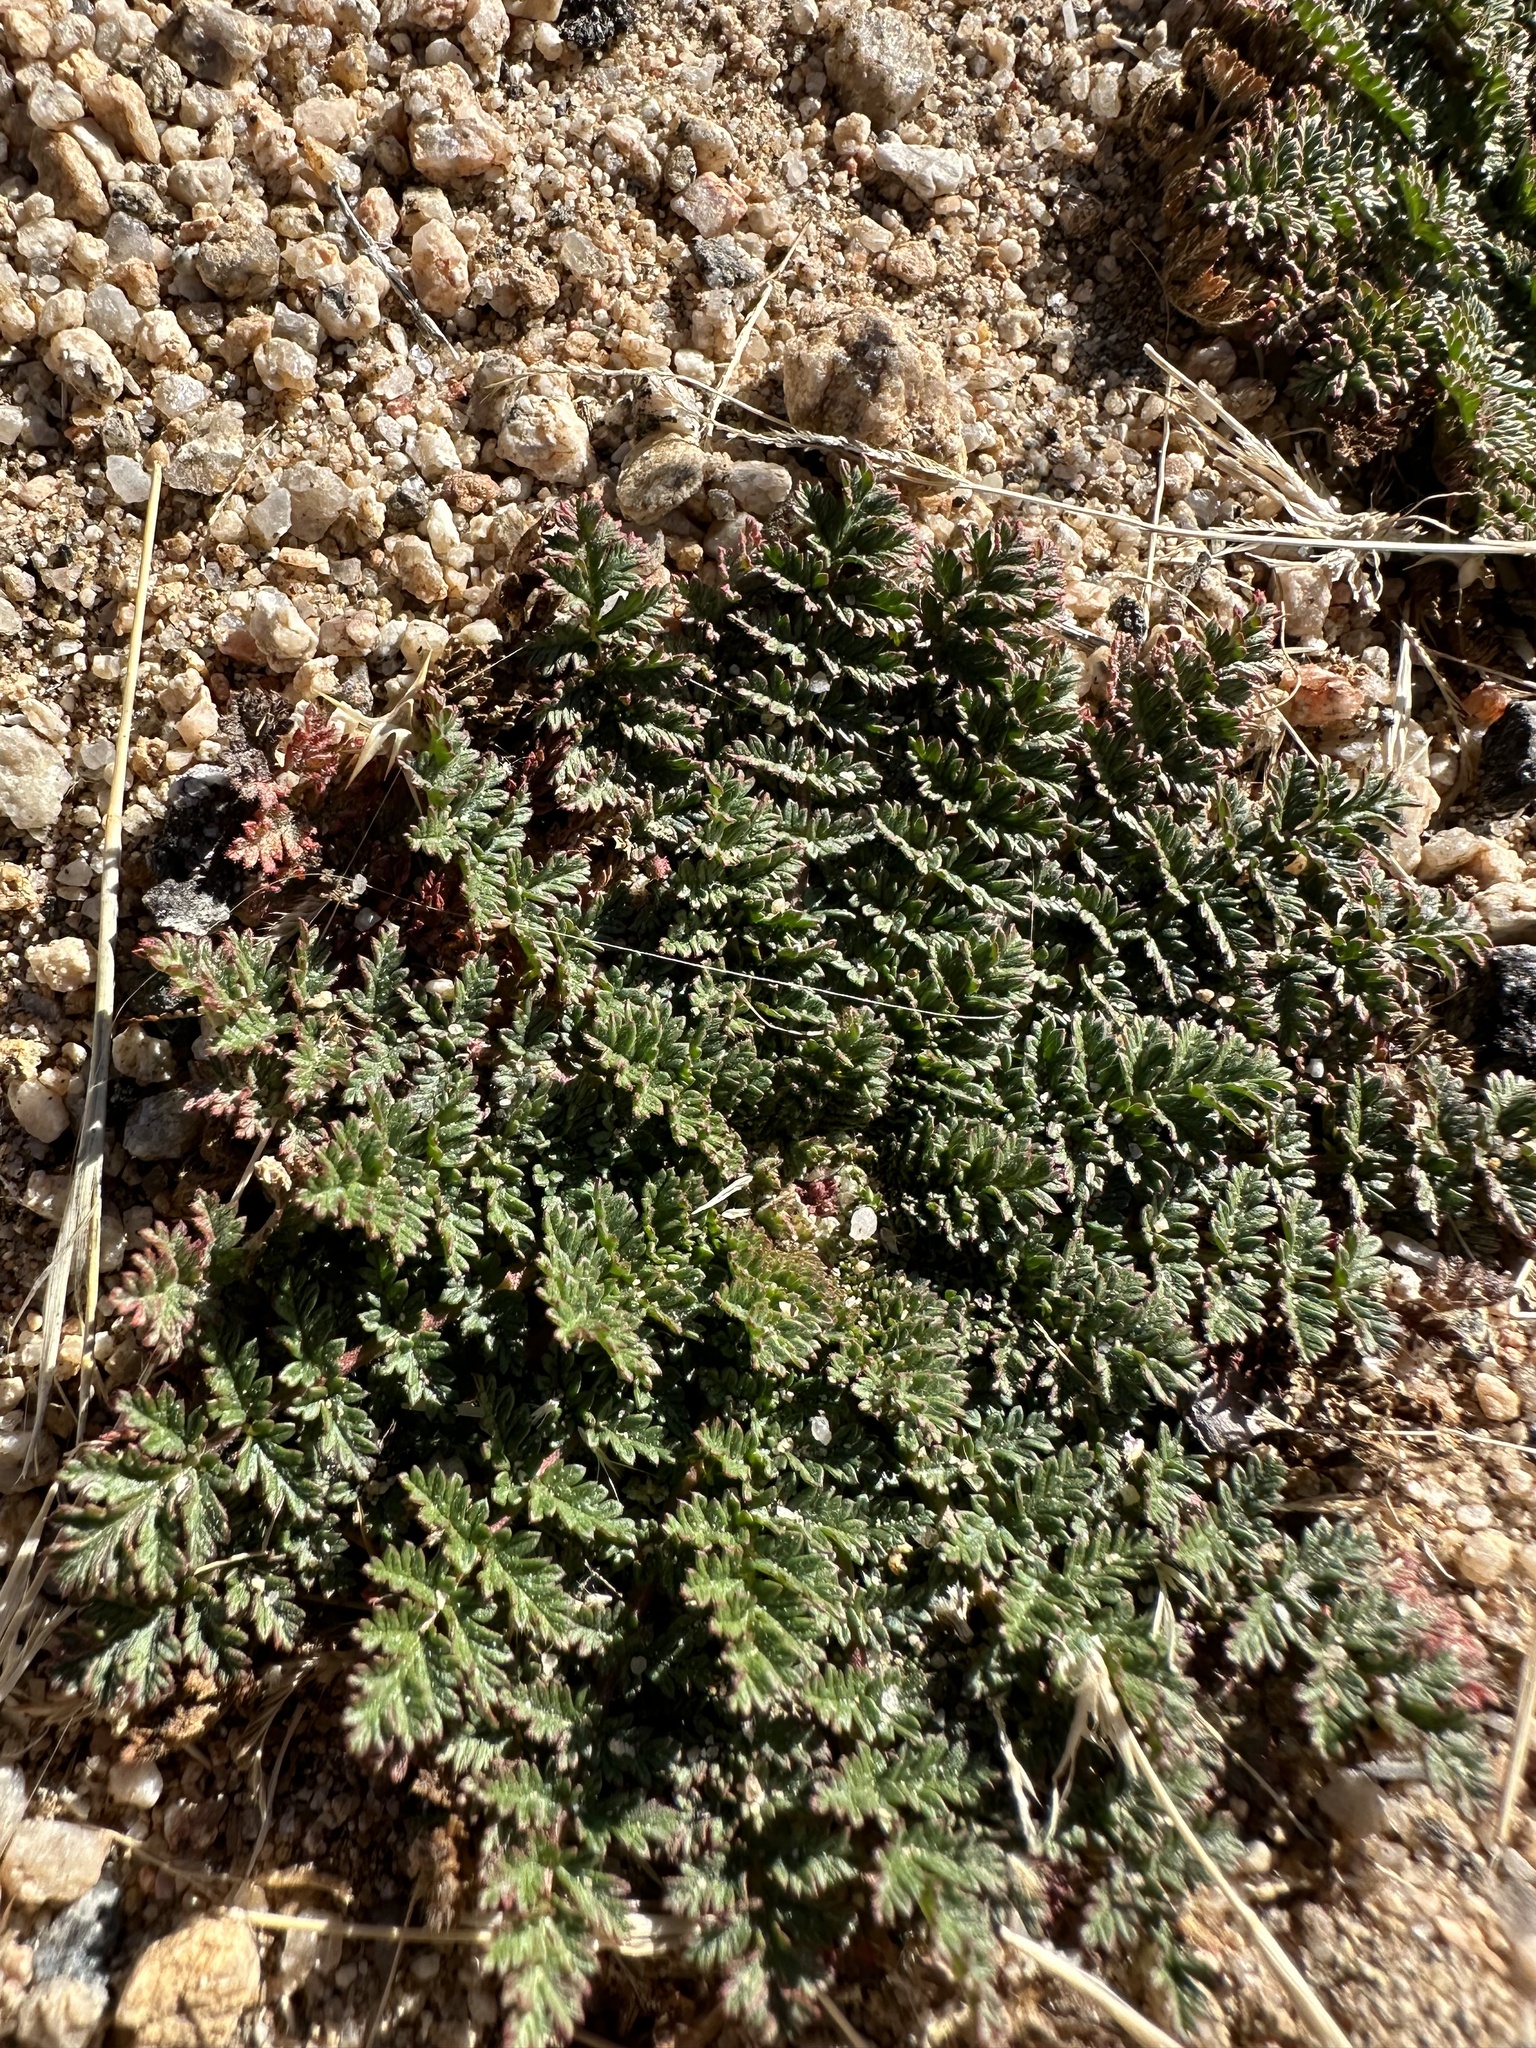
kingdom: Plantae
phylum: Tracheophyta
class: Magnoliopsida
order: Geraniales
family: Geraniaceae
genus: Erodium
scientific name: Erodium cicutarium
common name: Common stork's-bill
